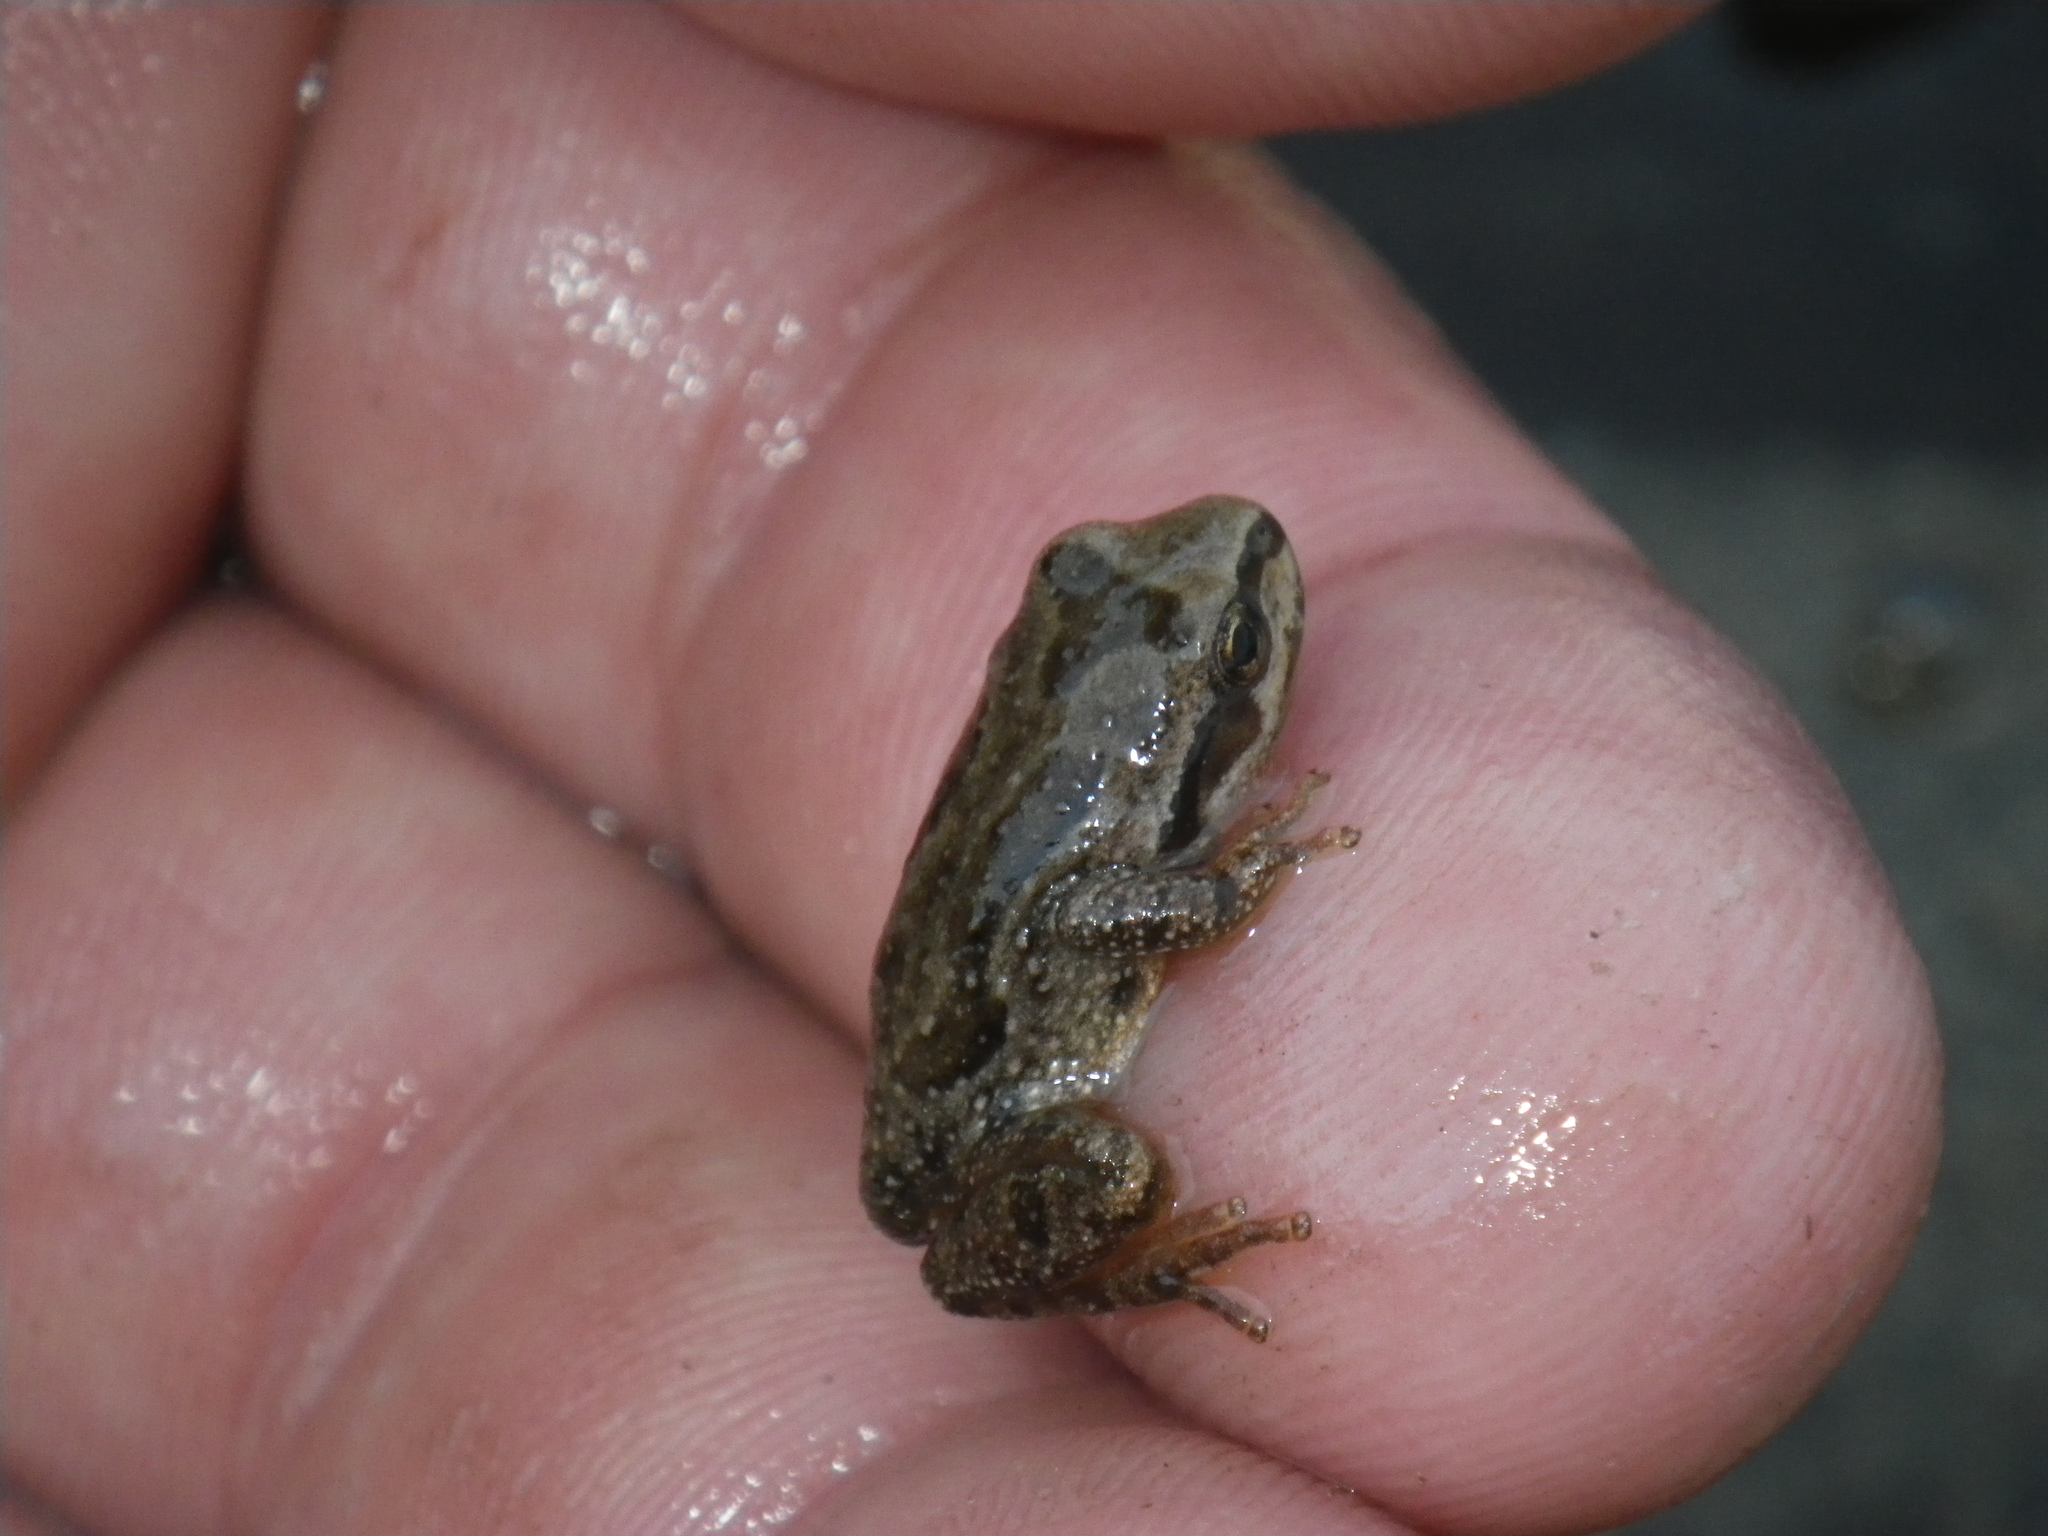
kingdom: Animalia
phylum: Chordata
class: Amphibia
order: Anura
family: Hylidae
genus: Pseudacris
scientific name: Pseudacris regilla
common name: Pacific chorus frog
